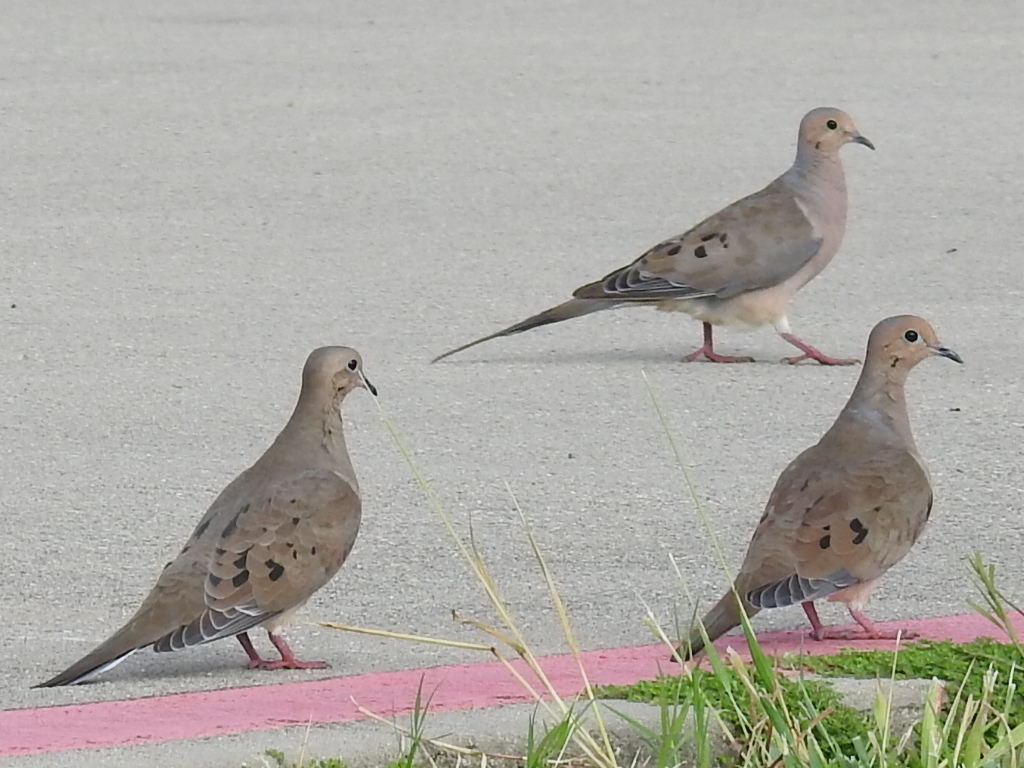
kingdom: Animalia
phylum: Chordata
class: Aves
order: Columbiformes
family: Columbidae
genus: Zenaida
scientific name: Zenaida macroura
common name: Mourning dove
